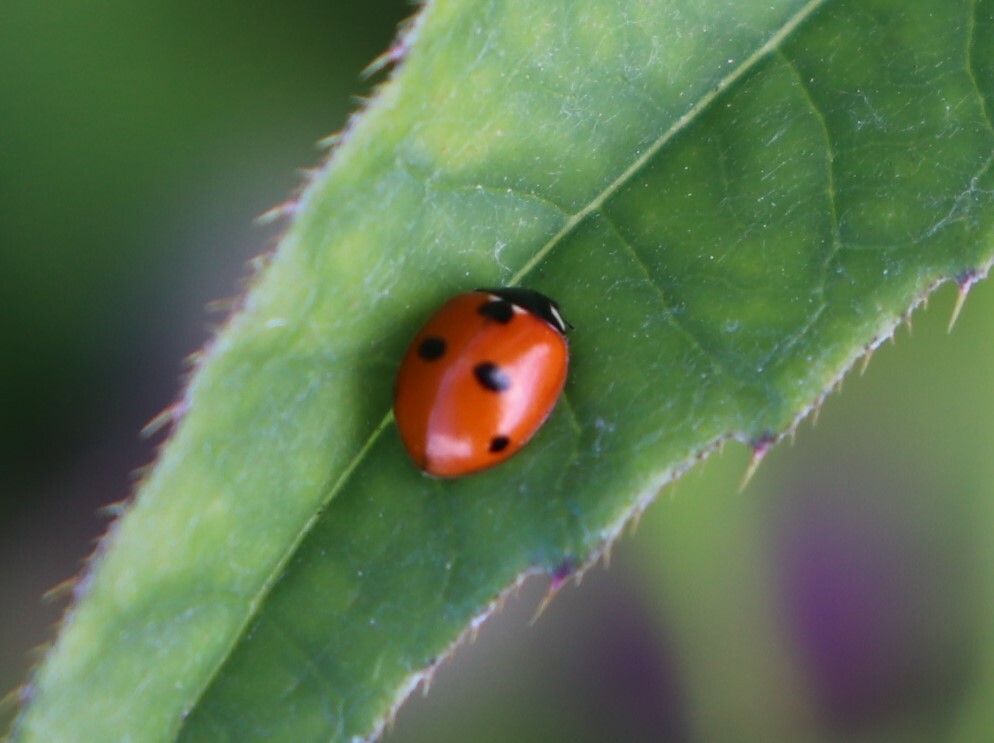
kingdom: Animalia
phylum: Arthropoda
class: Insecta
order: Coleoptera
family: Coccinellidae
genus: Coccinella
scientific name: Coccinella quinquepunctata
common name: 5-spot ladybird
